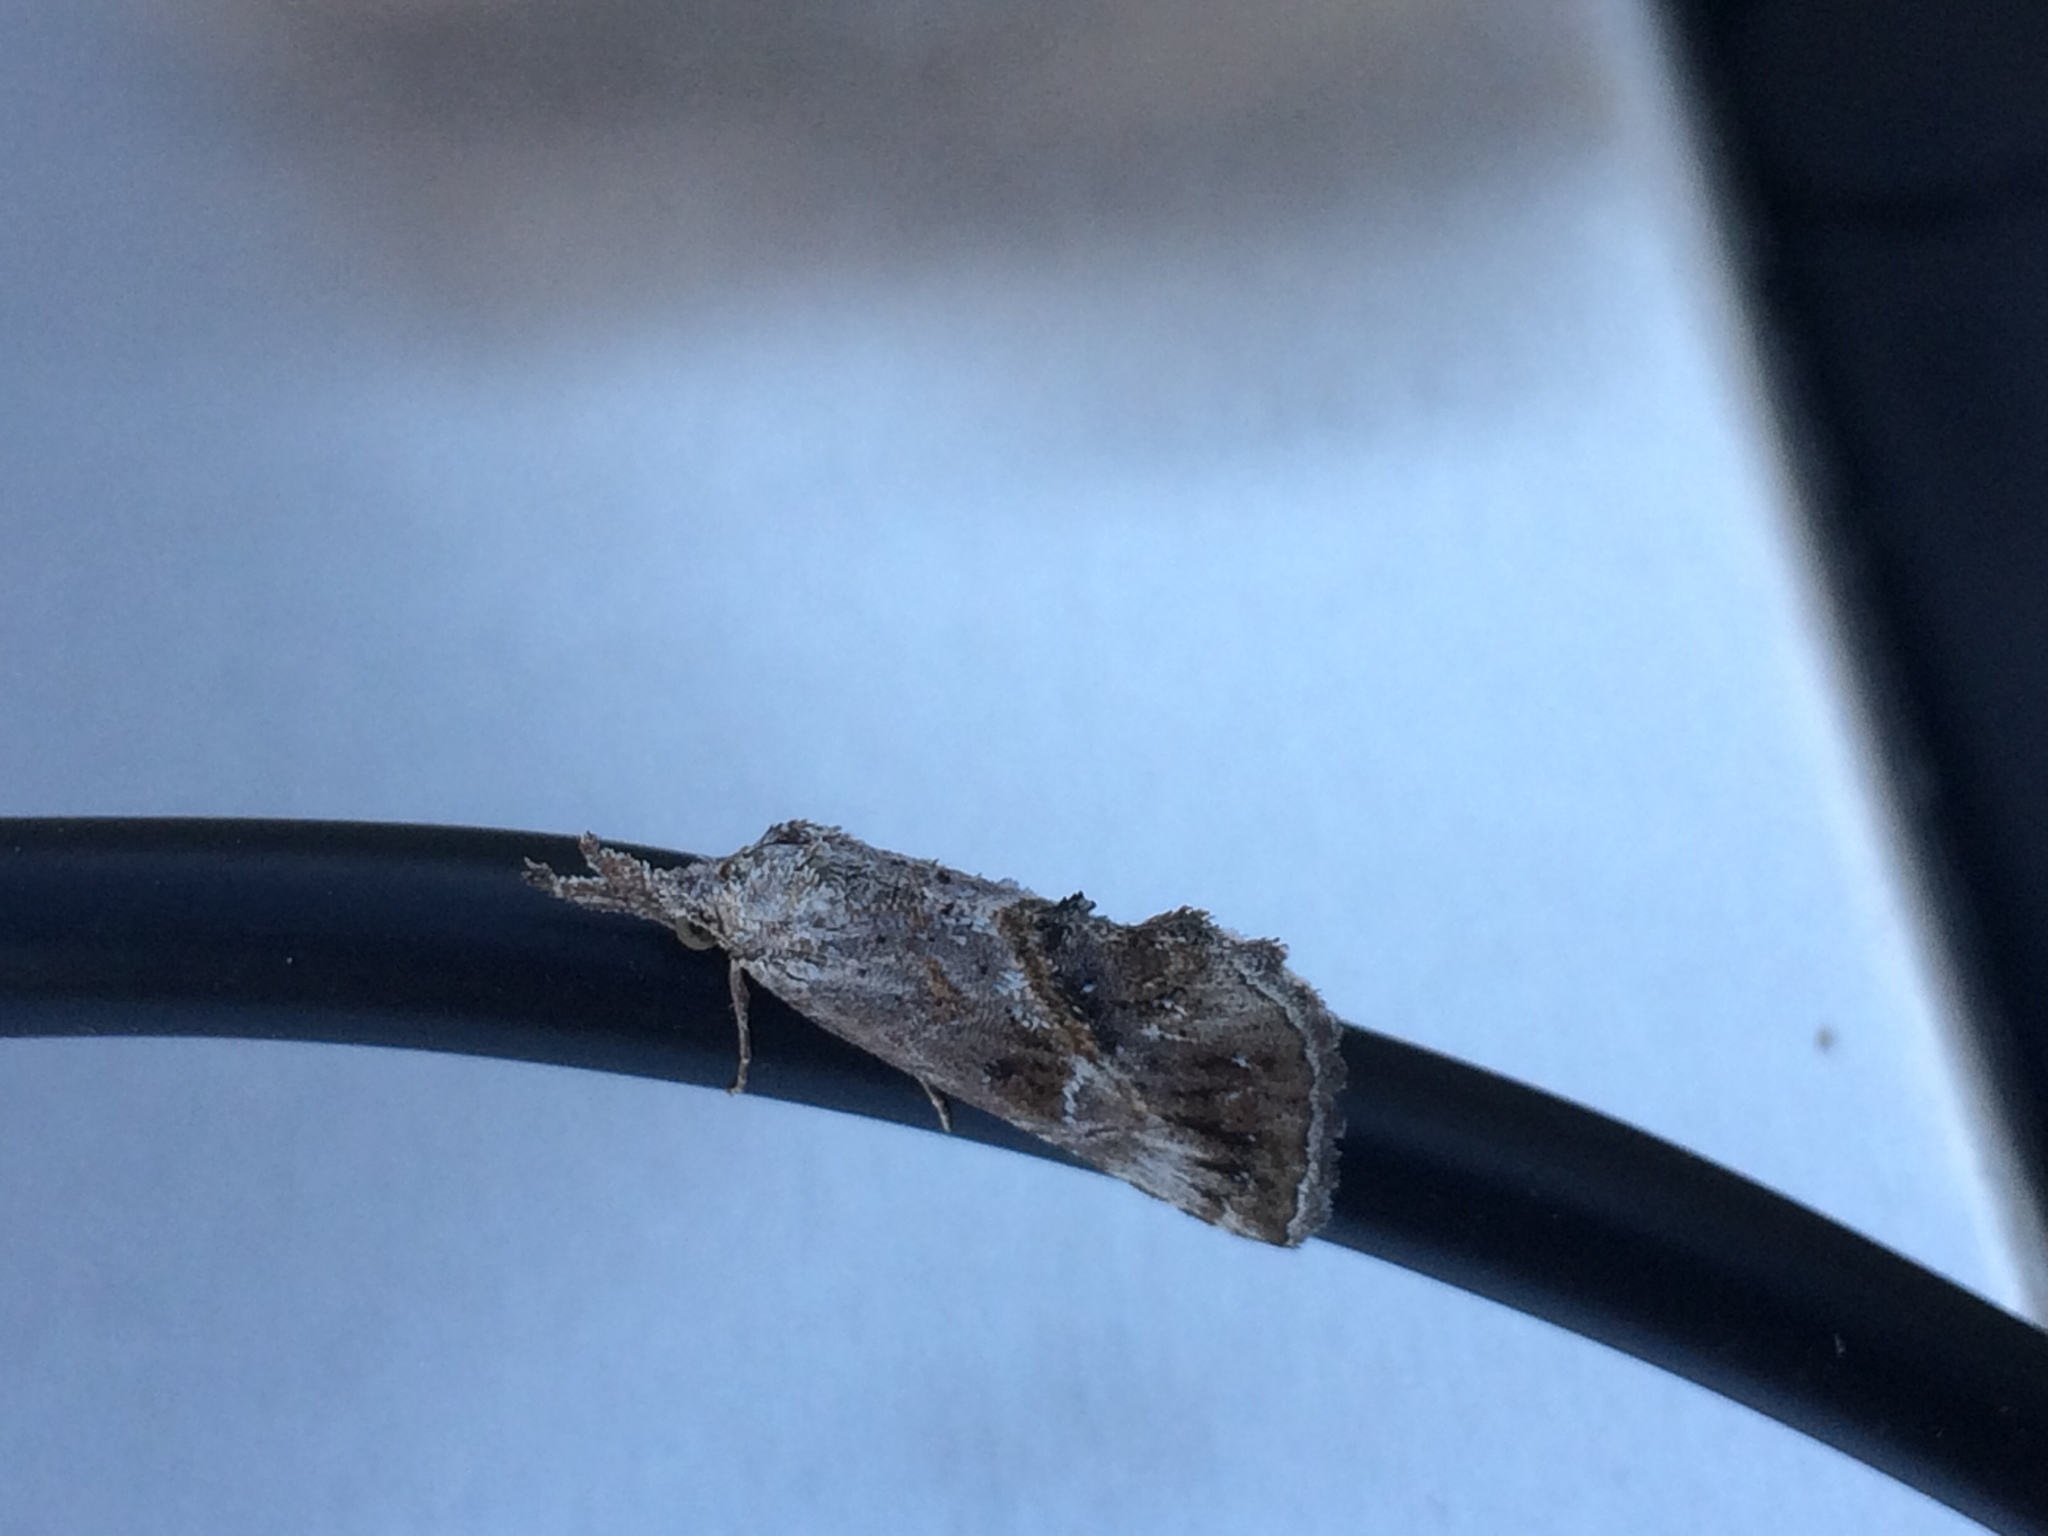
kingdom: Animalia
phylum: Arthropoda
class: Insecta
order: Lepidoptera
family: Erebidae
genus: Zekelita
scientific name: Zekelita antiqualis
